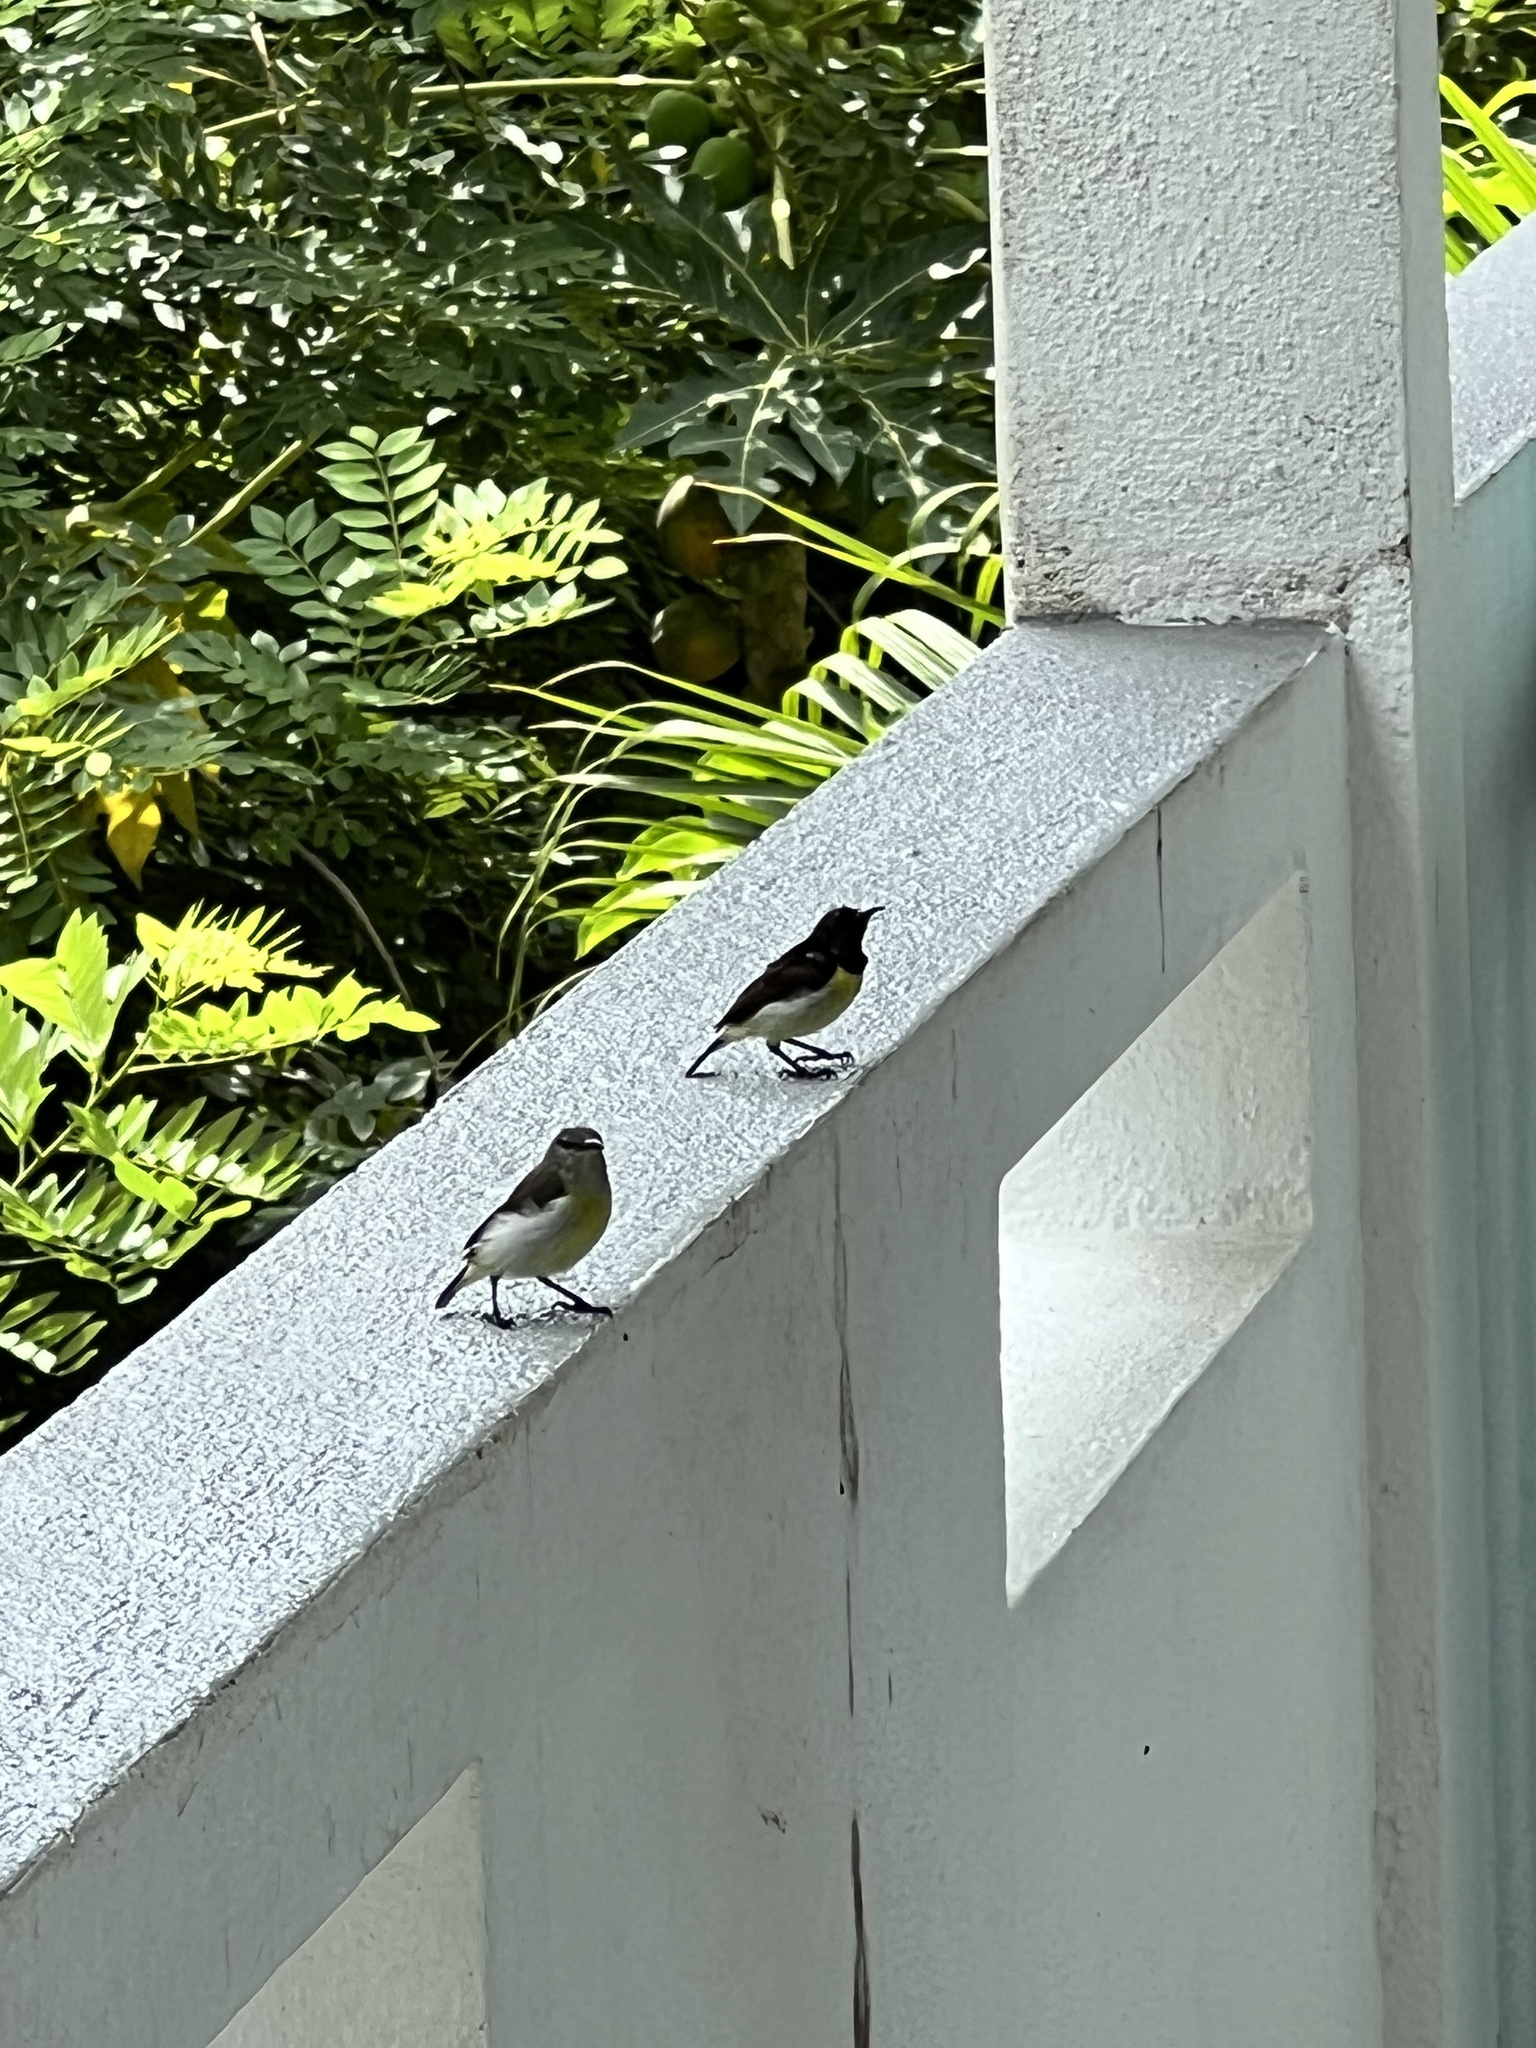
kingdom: Animalia
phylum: Chordata
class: Aves
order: Passeriformes
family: Nectariniidae
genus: Leptocoma
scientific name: Leptocoma zeylonica
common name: Purple-rumped sunbird
